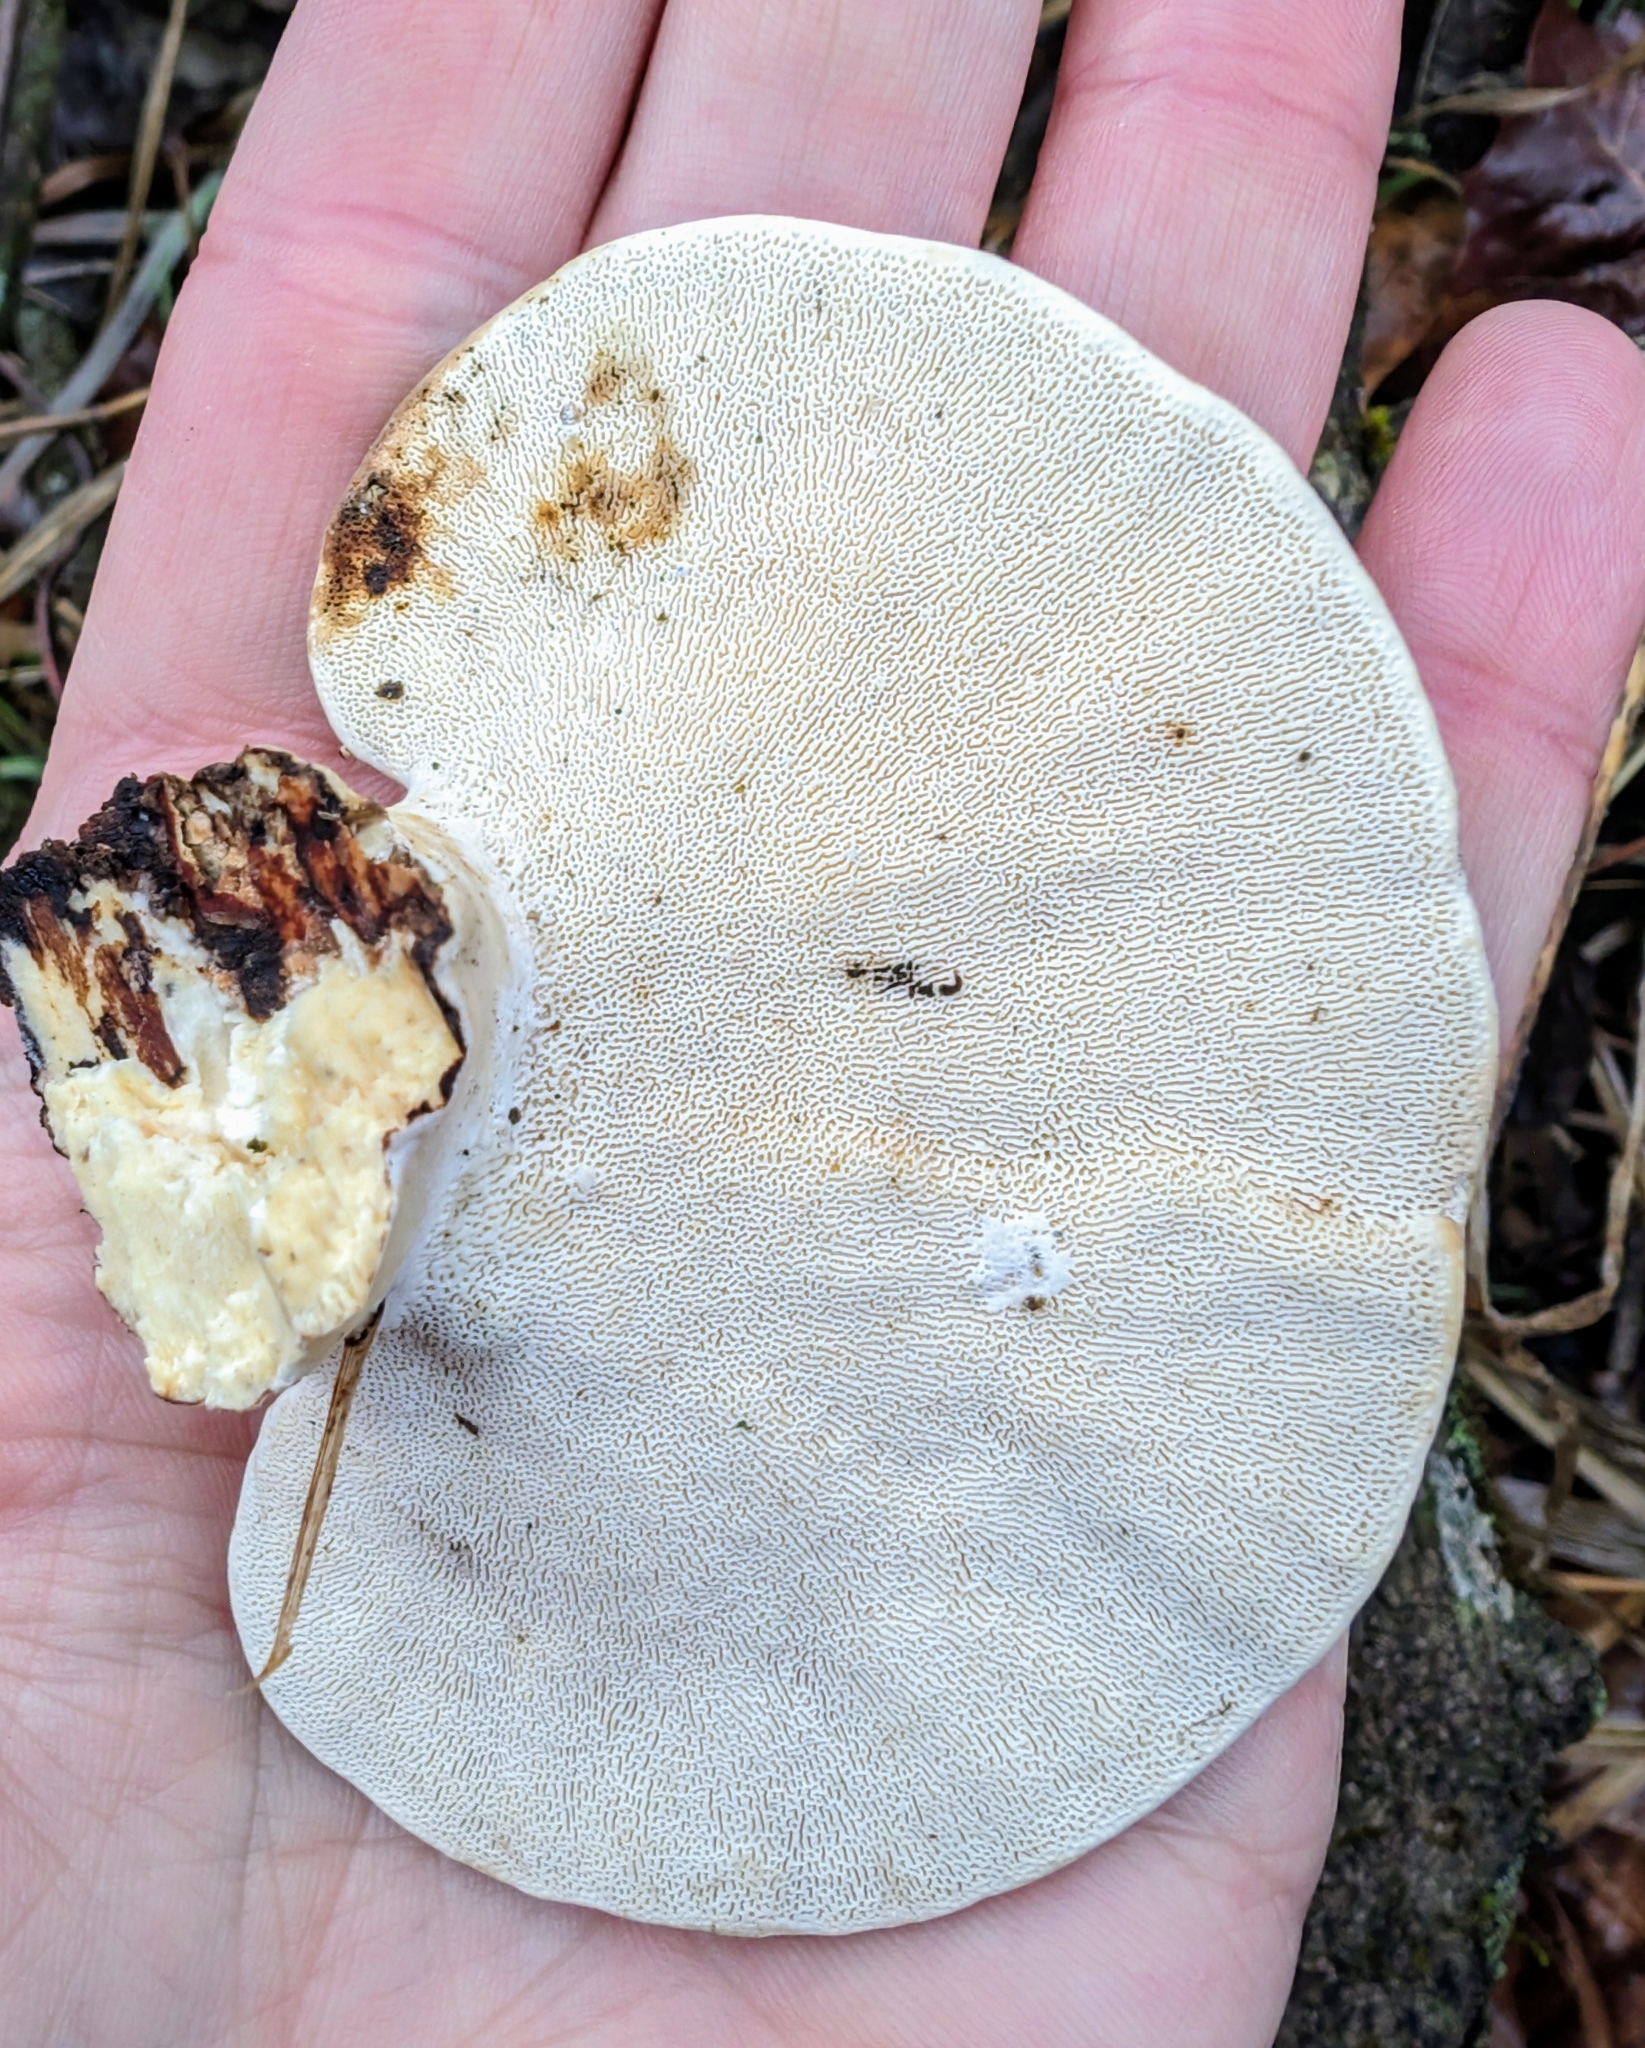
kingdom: Fungi
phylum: Basidiomycota
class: Agaricomycetes
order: Polyporales
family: Polyporaceae
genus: Trametes
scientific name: Trametes
